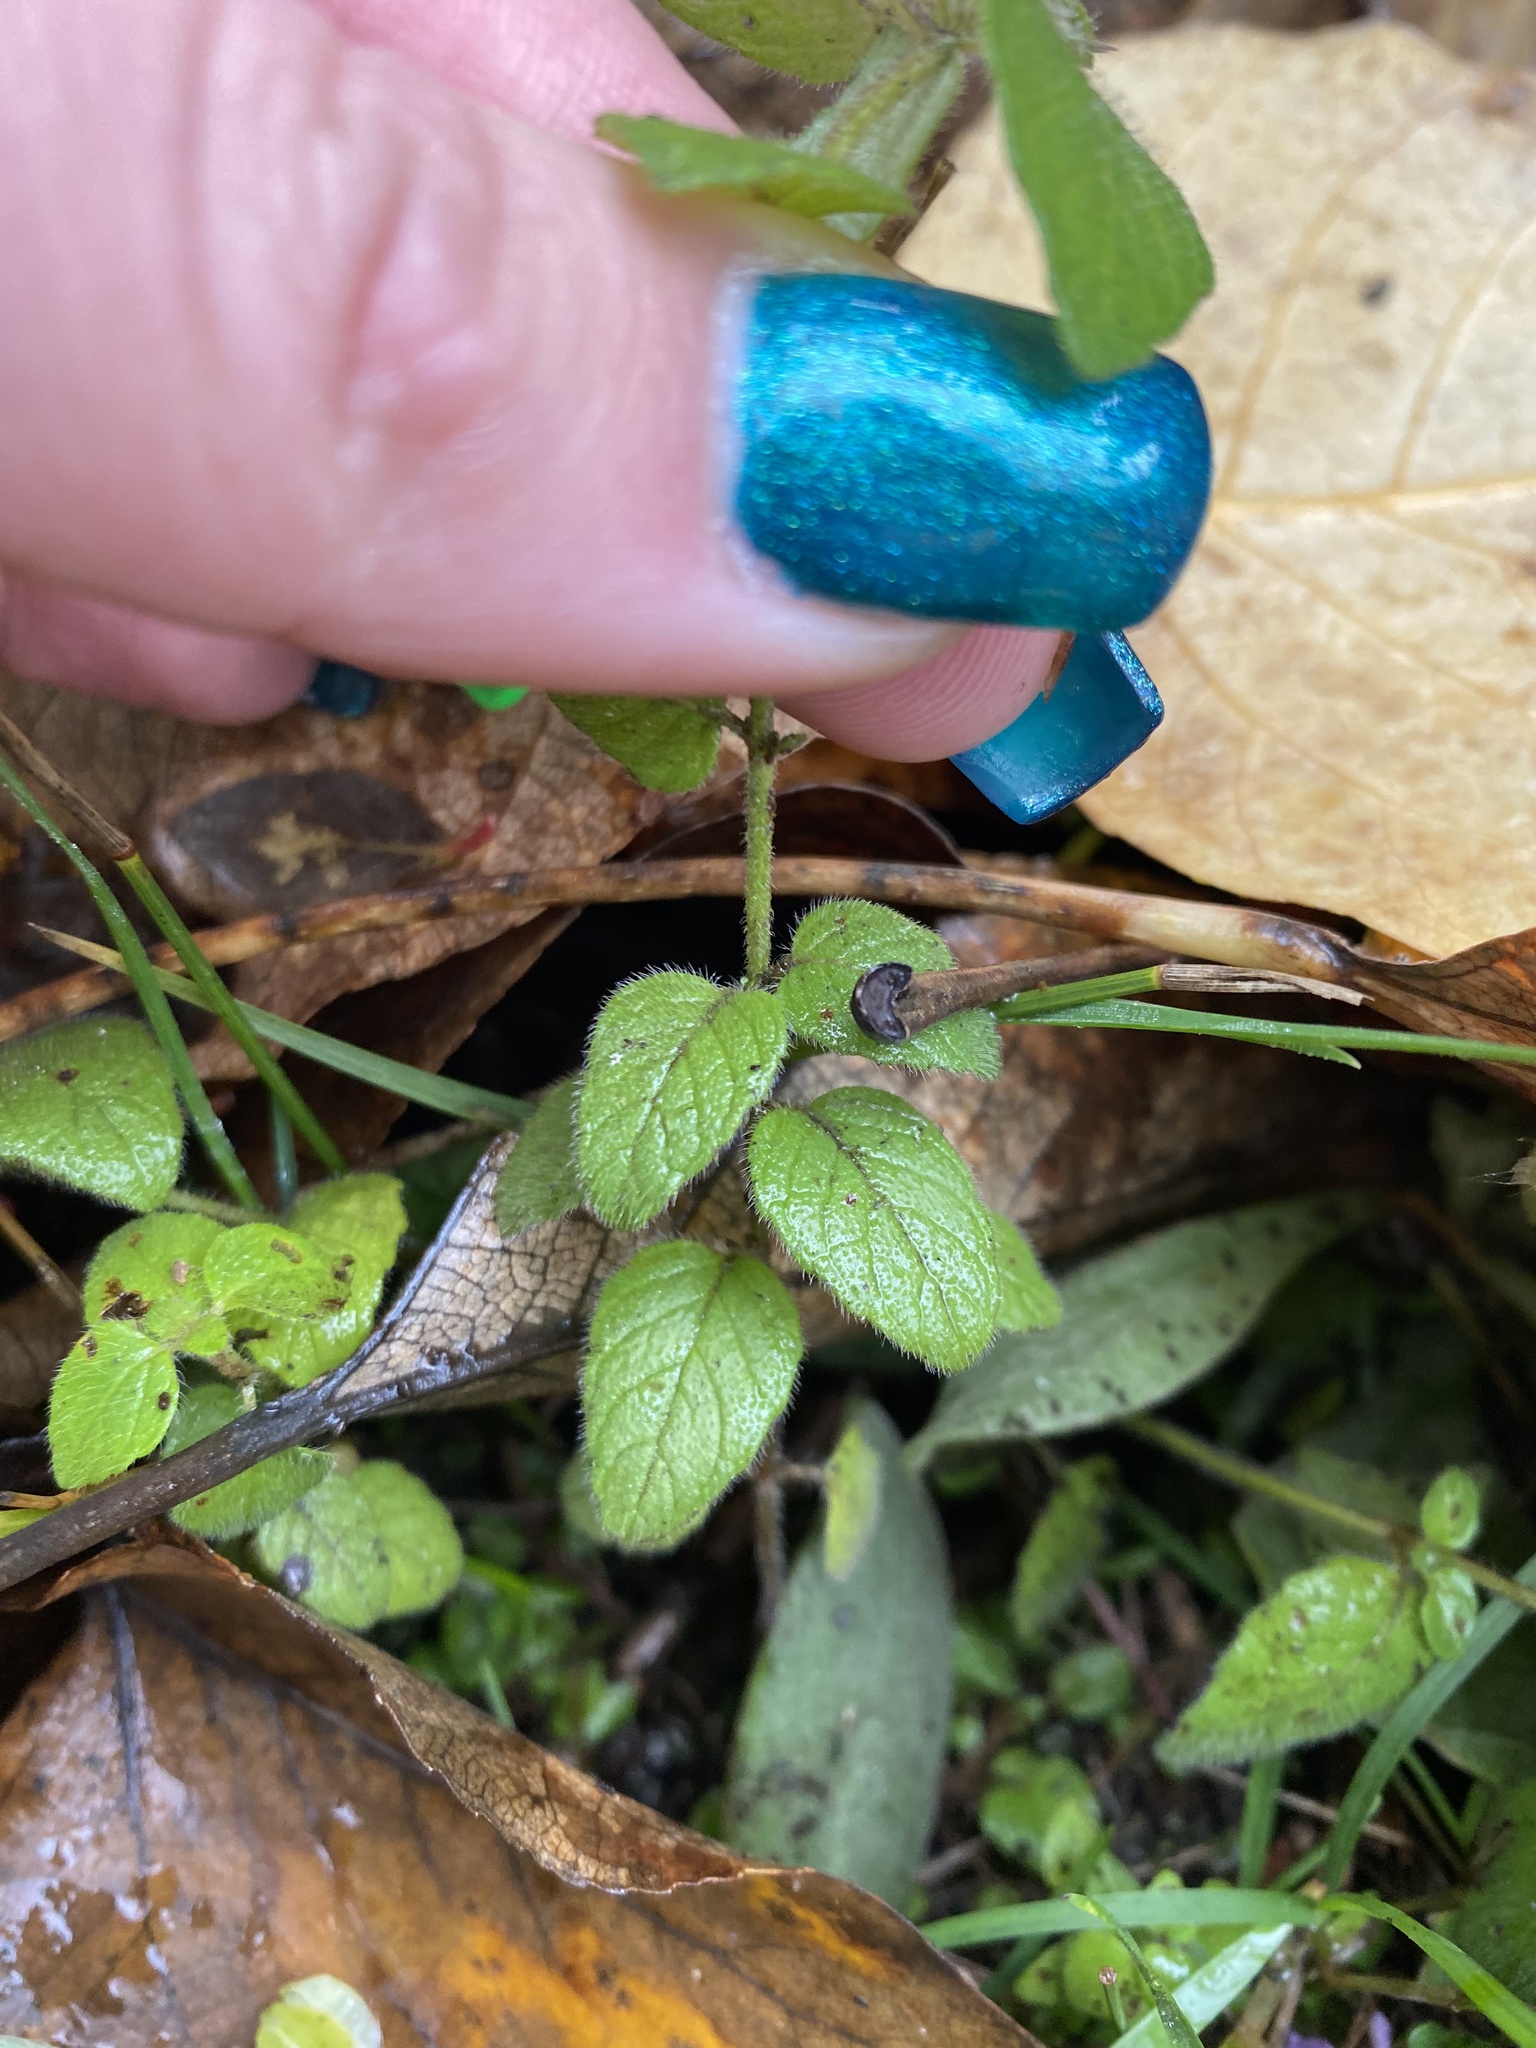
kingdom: Plantae
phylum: Tracheophyta
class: Magnoliopsida
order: Lamiales
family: Lamiaceae
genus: Clinopodium
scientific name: Clinopodium vulgare
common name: Wild basil
